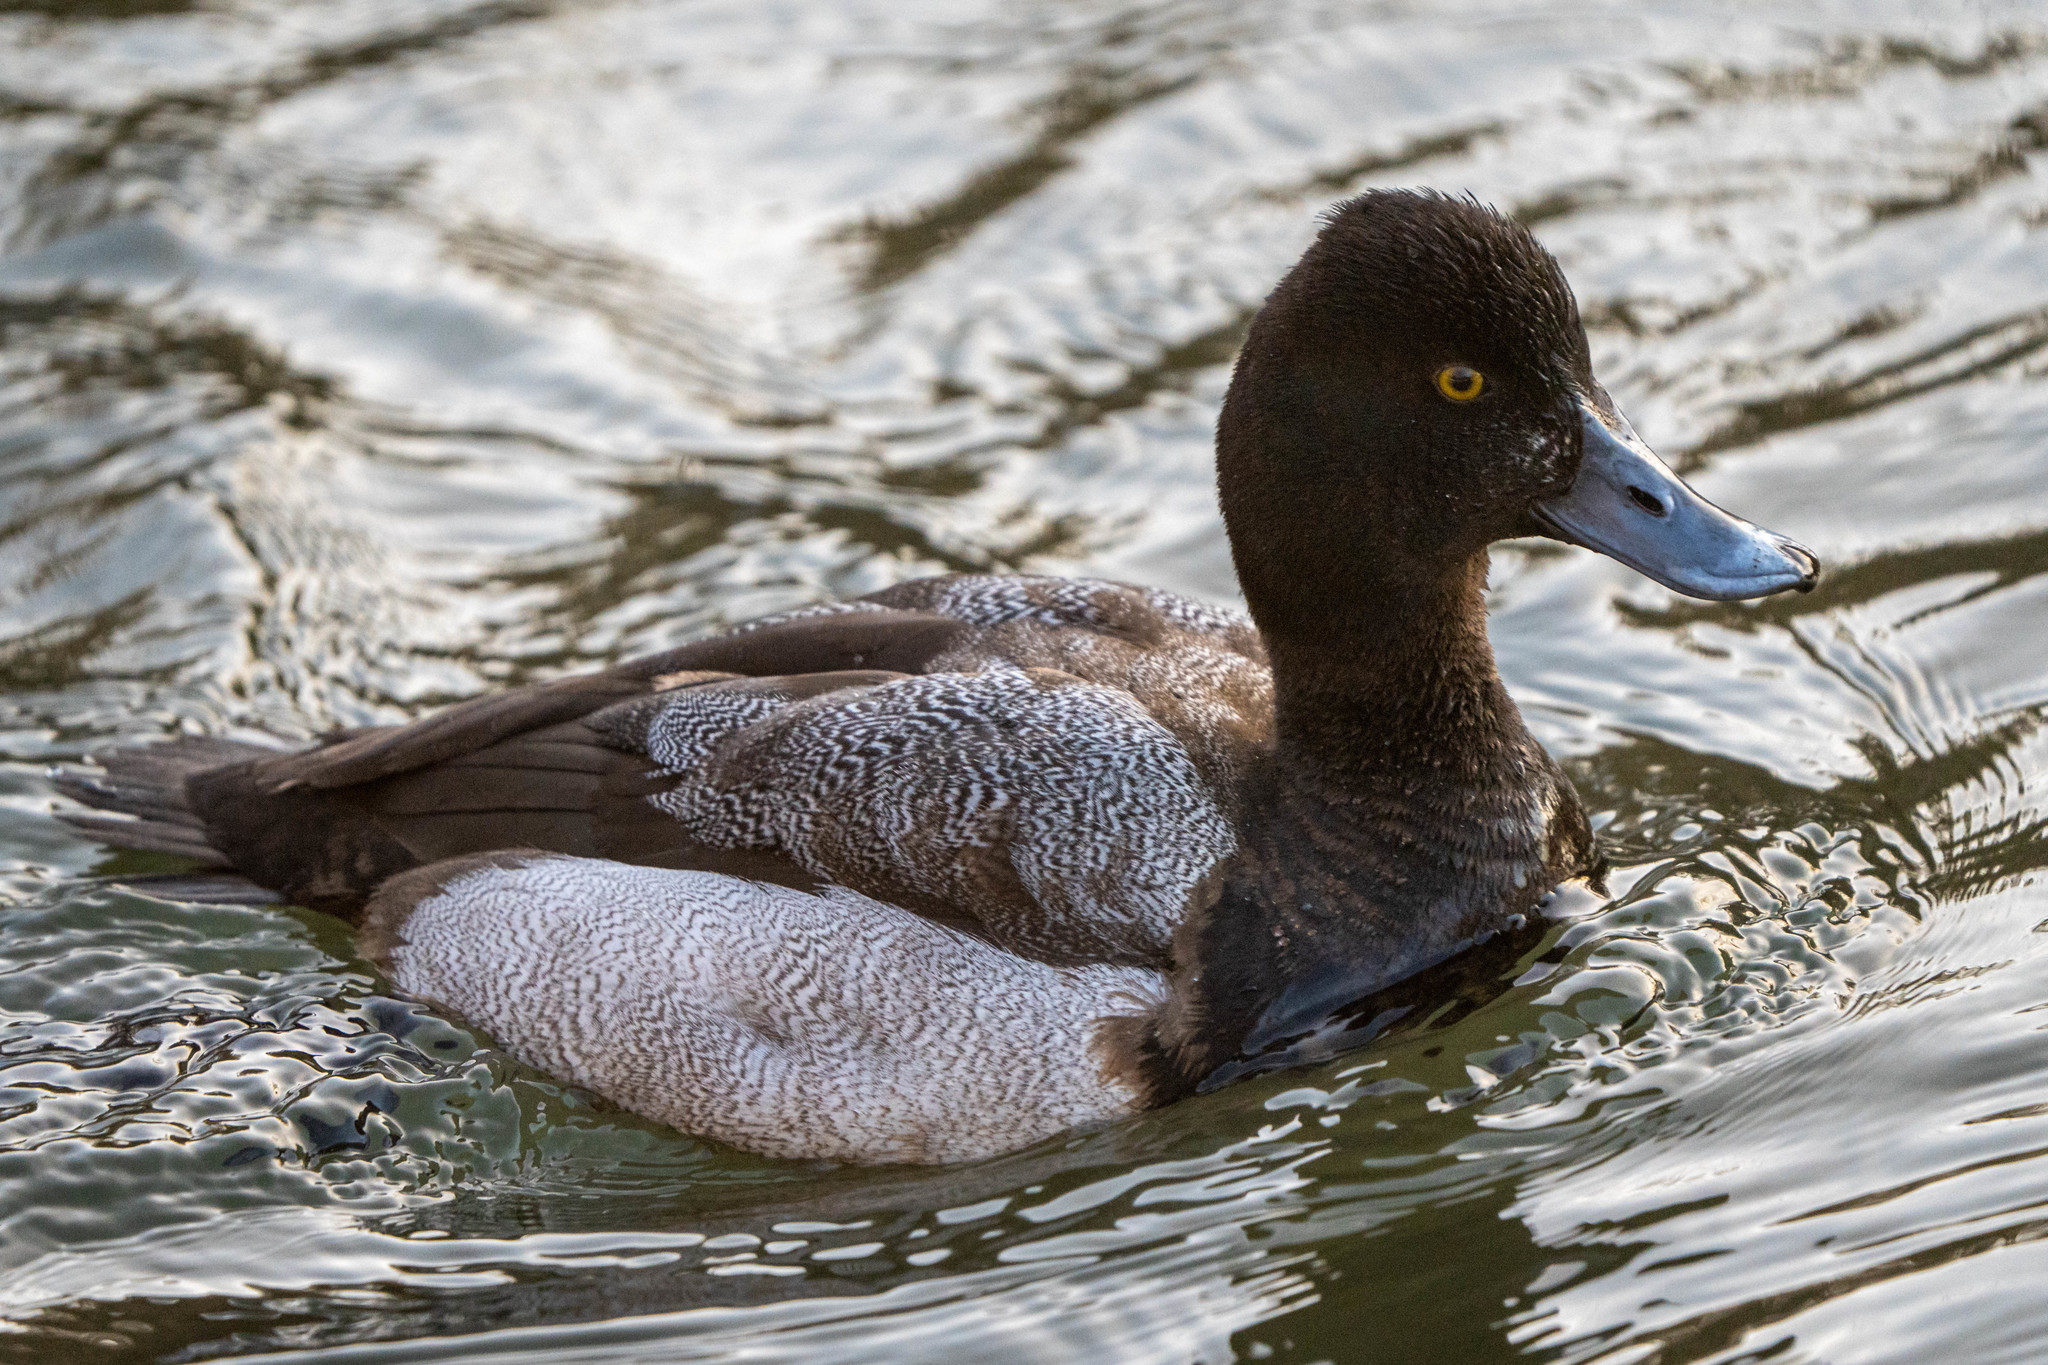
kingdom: Animalia
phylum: Chordata
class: Aves
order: Anseriformes
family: Anatidae
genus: Aythya
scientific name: Aythya affinis
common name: Lesser scaup
